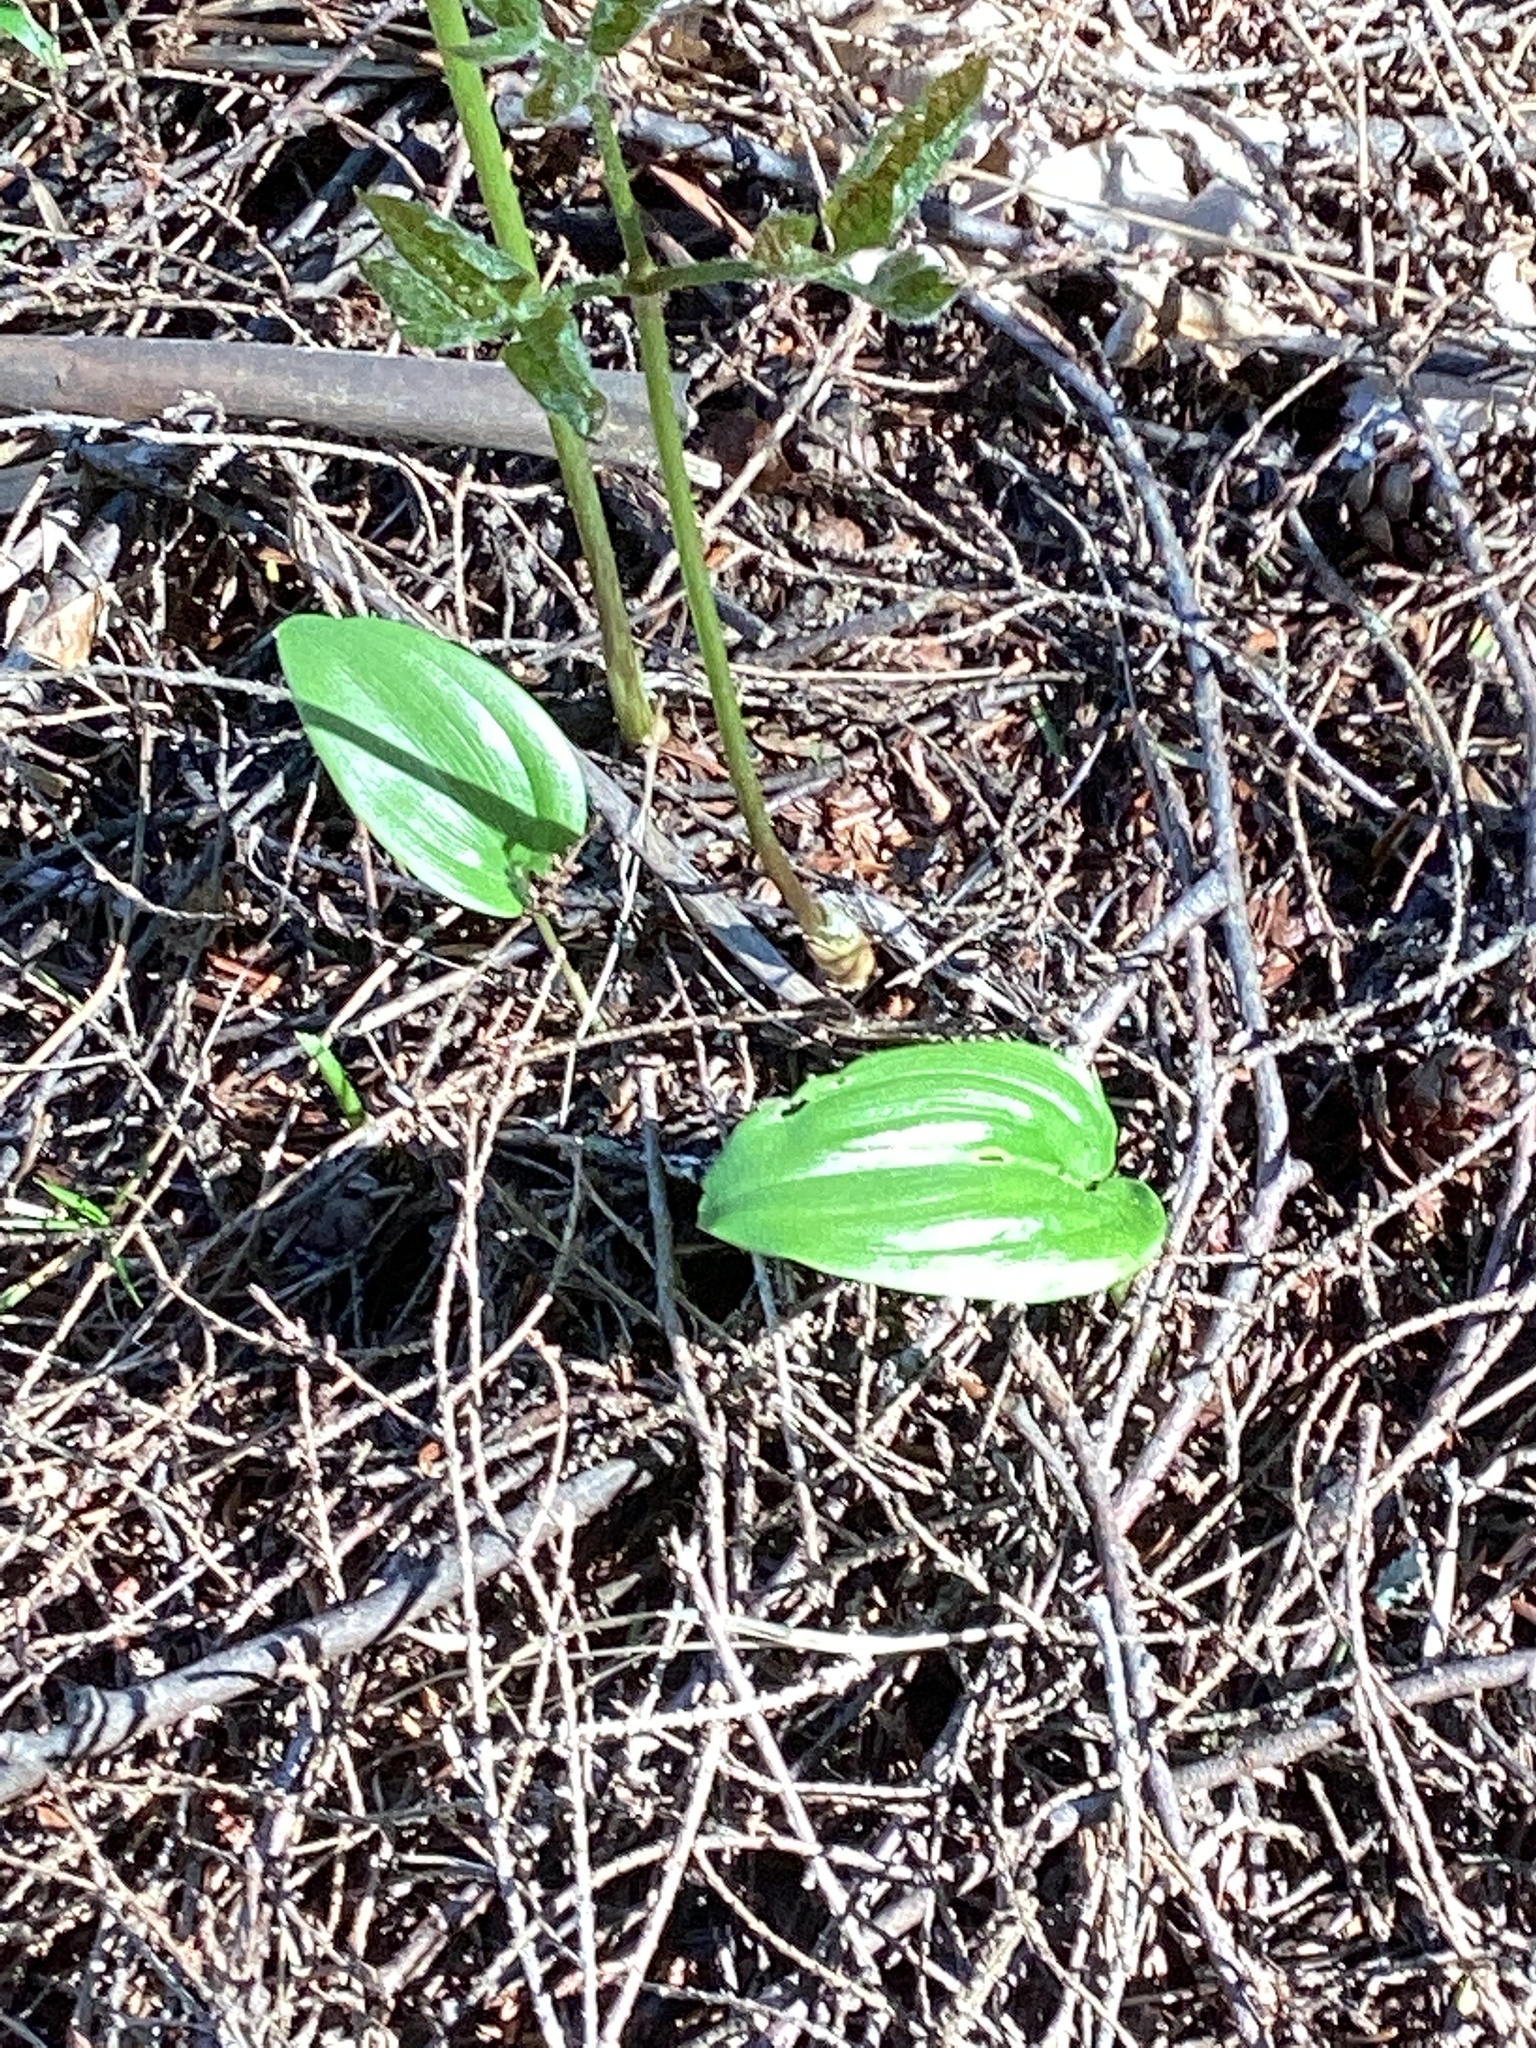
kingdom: Plantae
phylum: Tracheophyta
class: Liliopsida
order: Asparagales
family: Asparagaceae
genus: Maianthemum
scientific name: Maianthemum canadense
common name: False lily-of-the-valley
